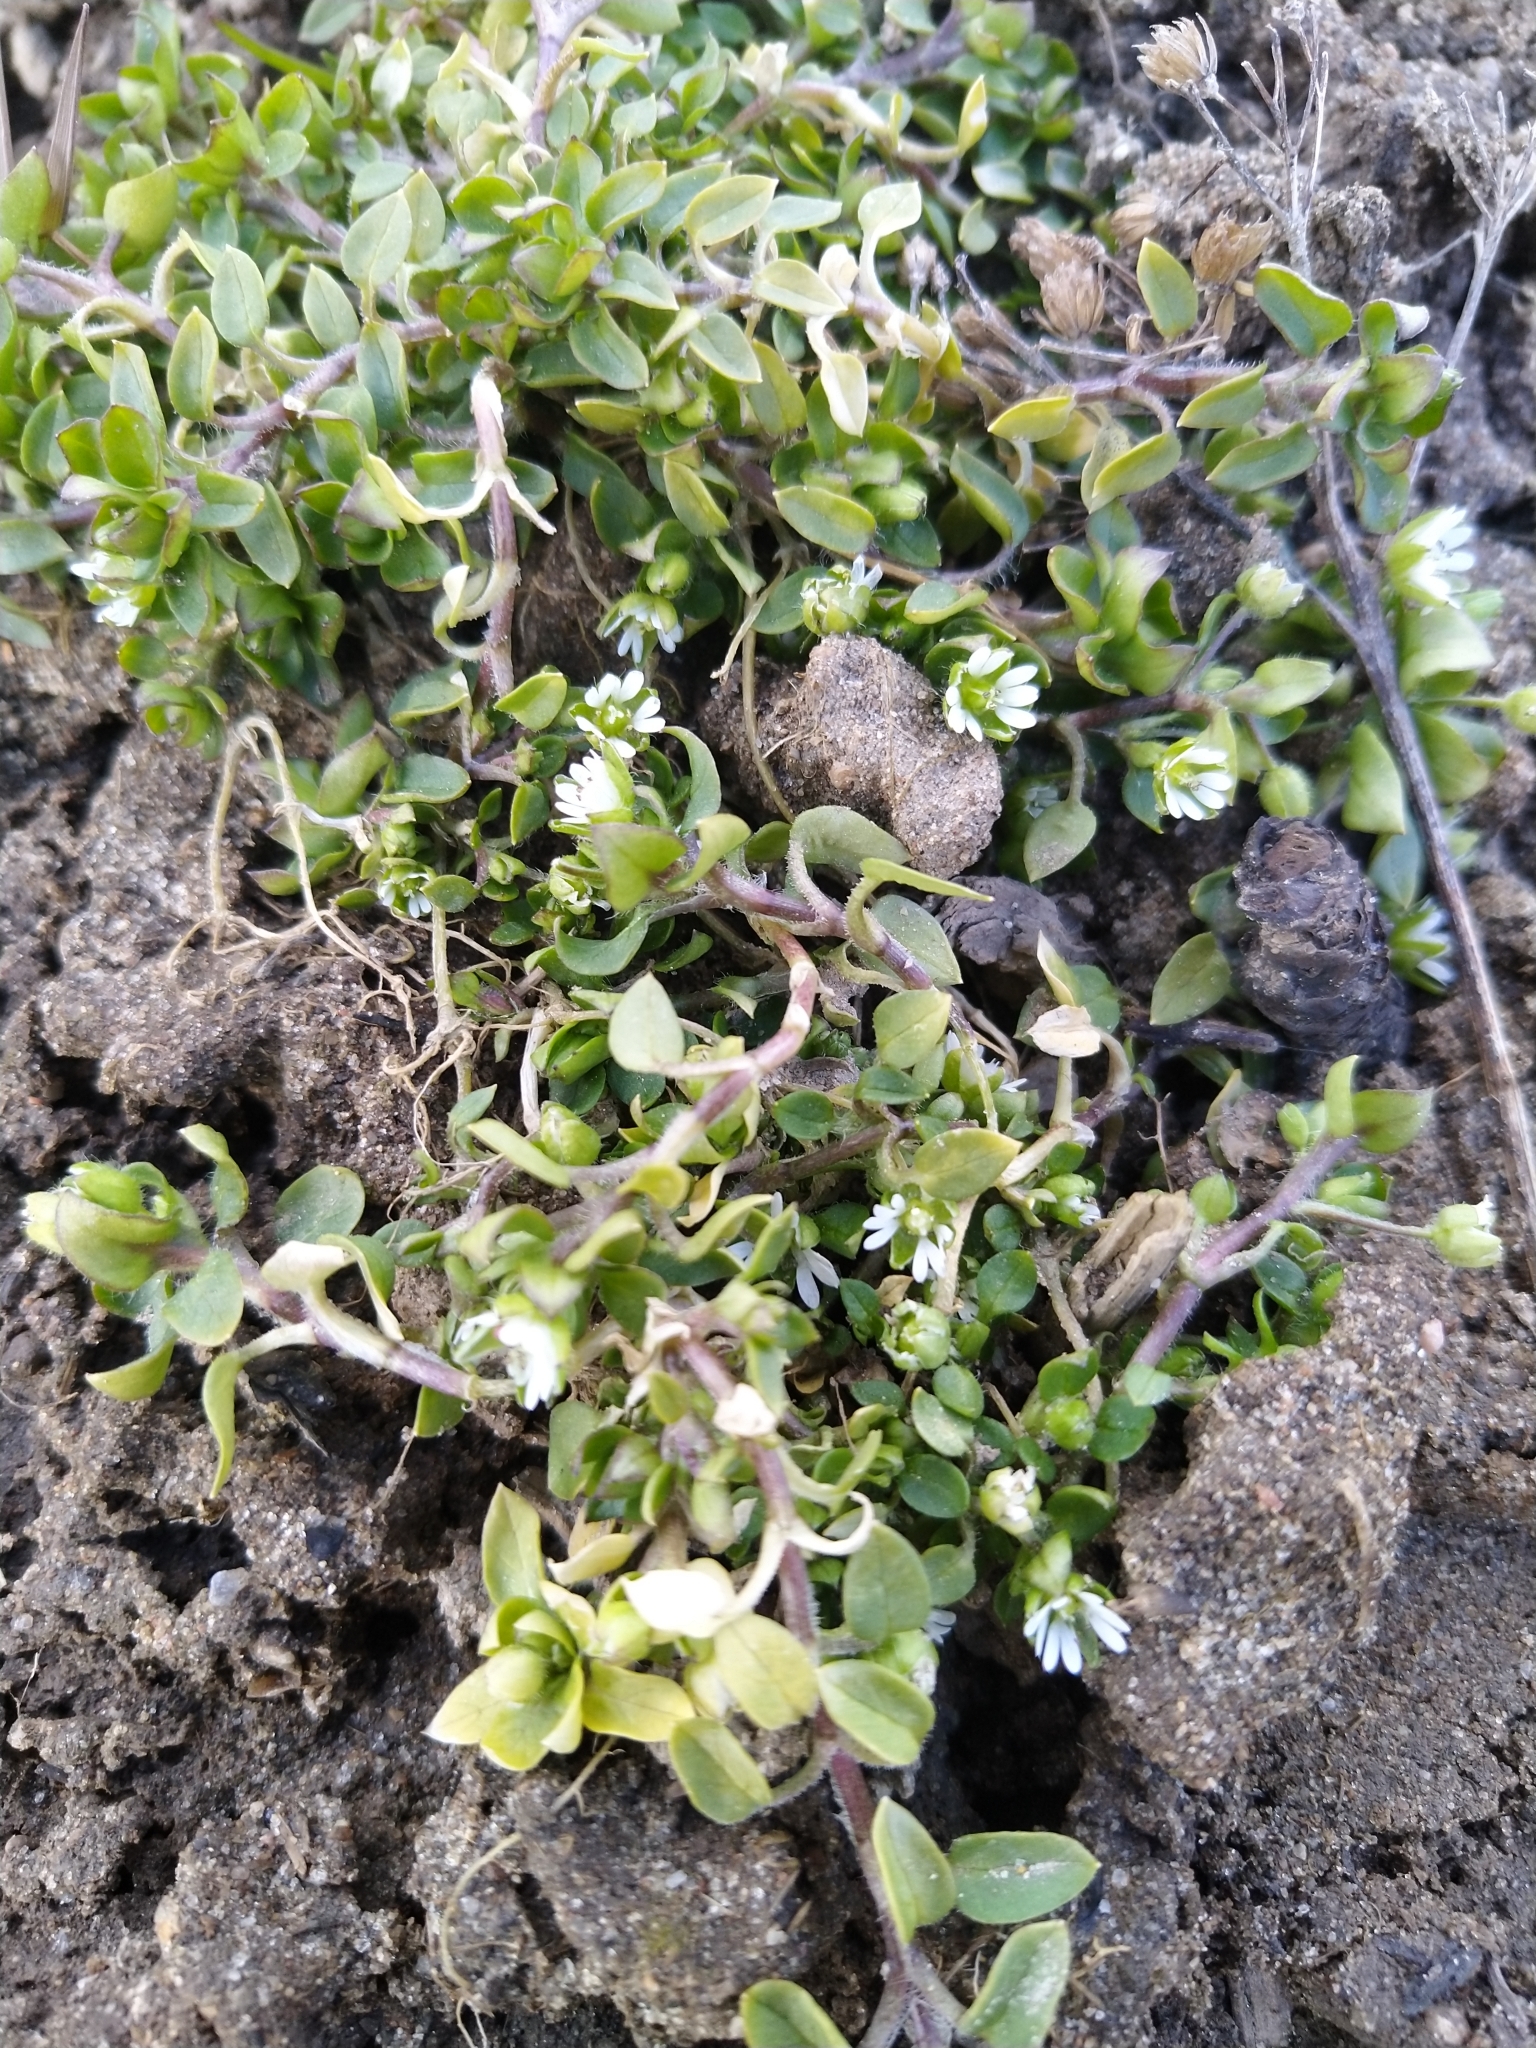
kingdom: Plantae
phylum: Tracheophyta
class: Magnoliopsida
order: Caryophyllales
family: Caryophyllaceae
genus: Stellaria
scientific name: Stellaria media
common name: Common chickweed
